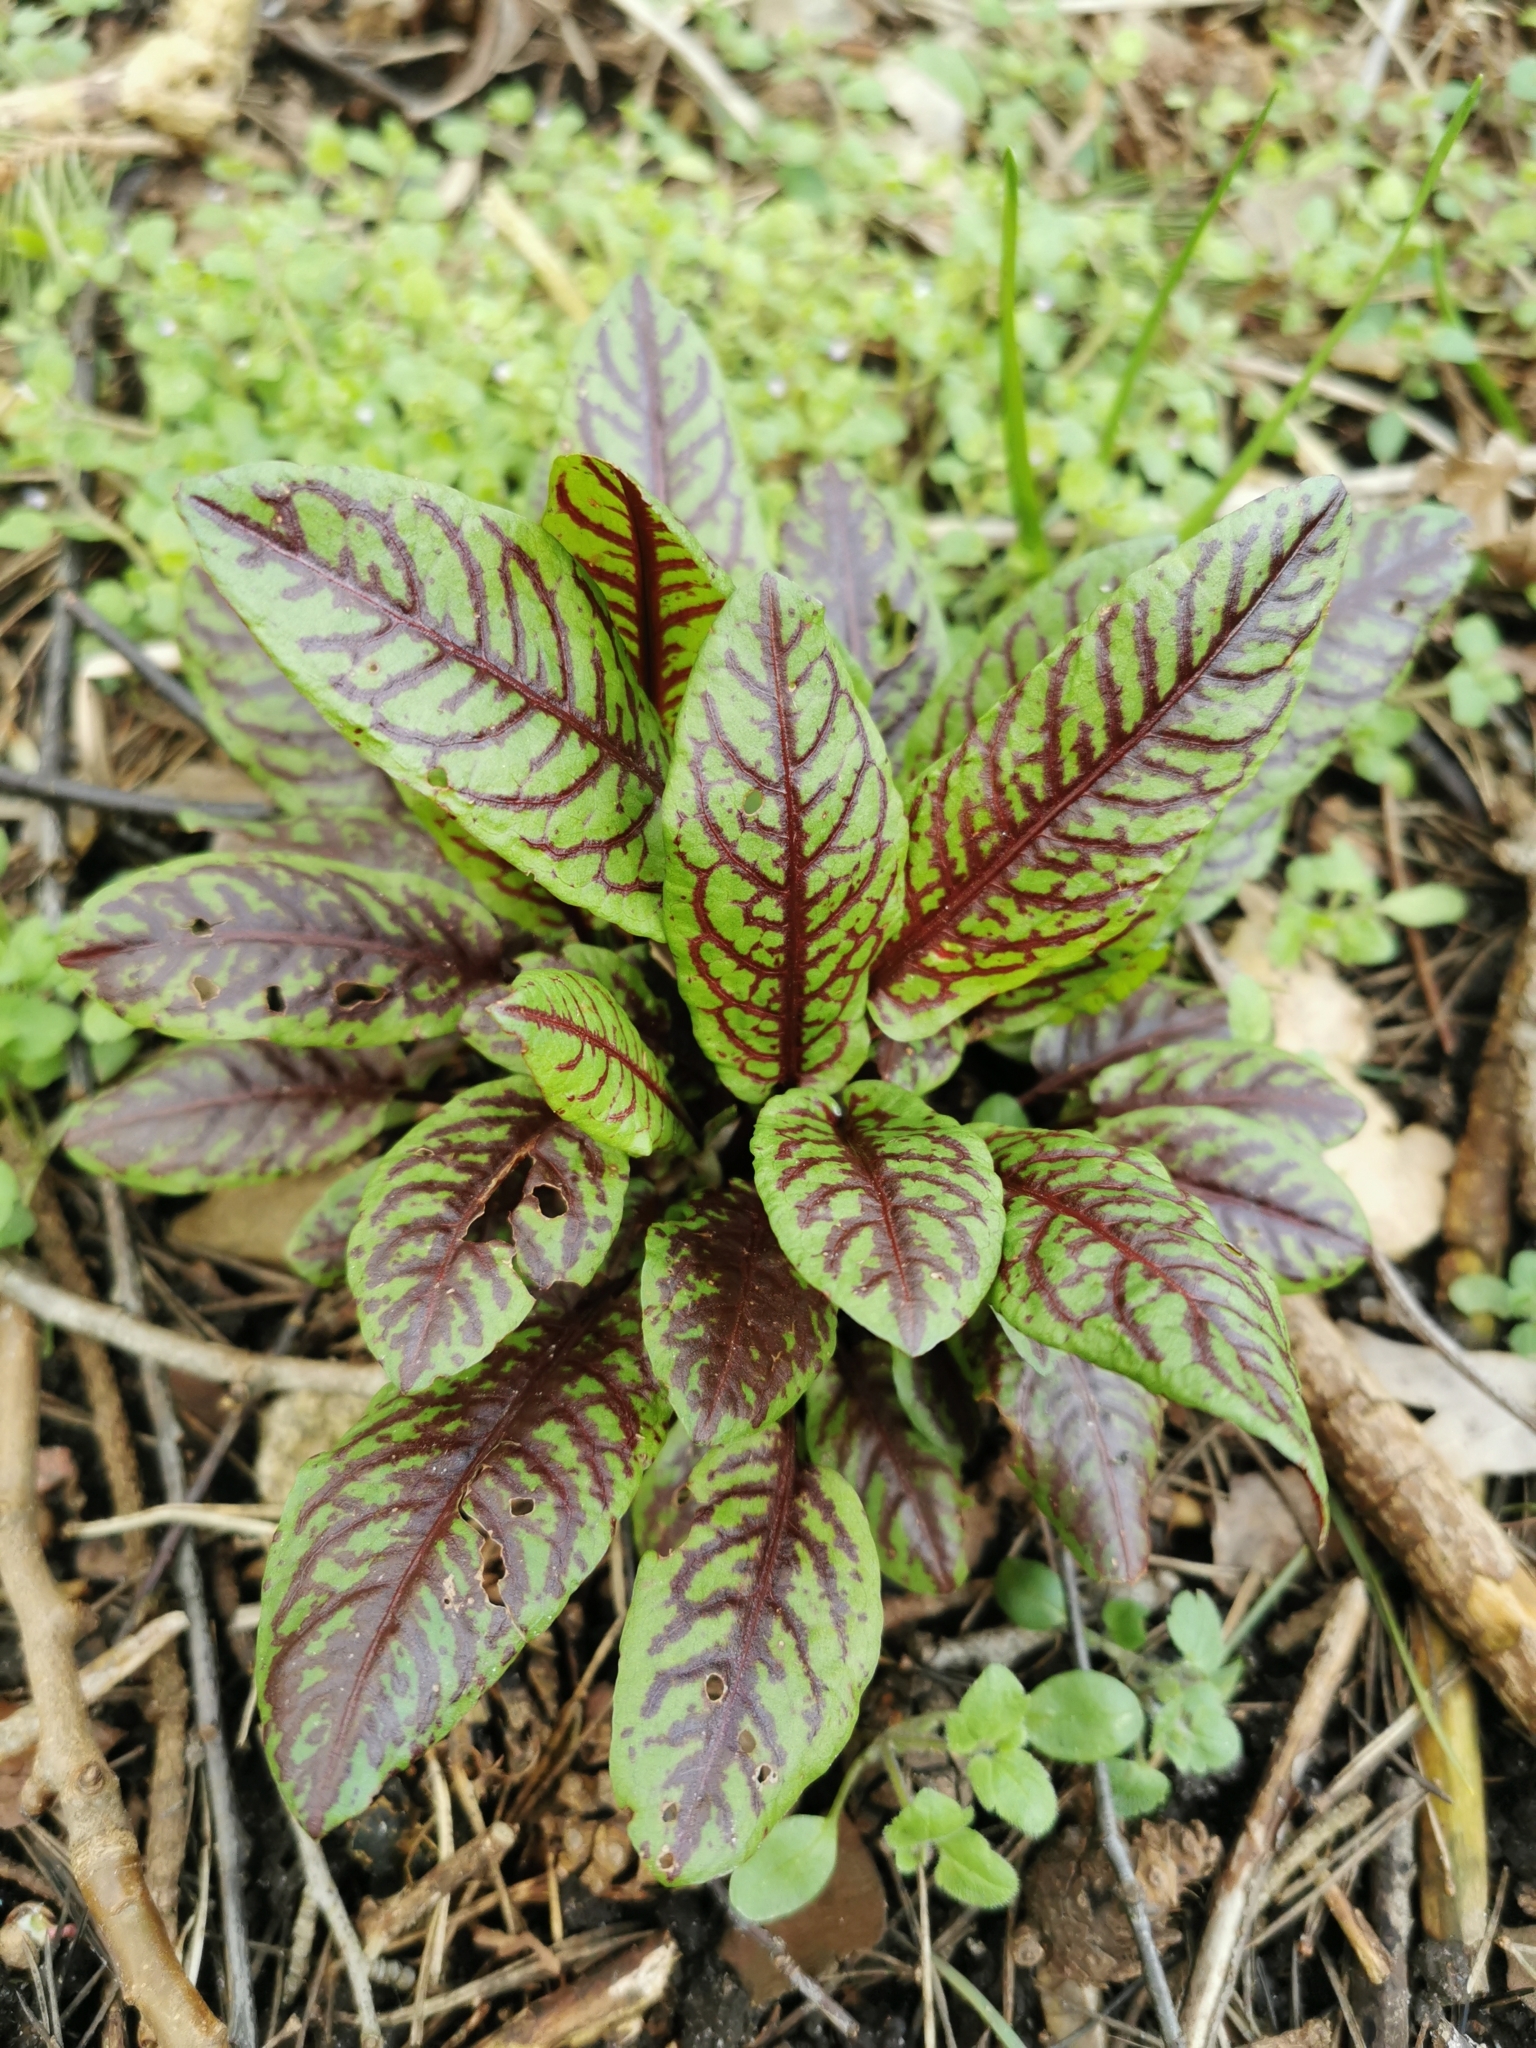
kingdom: Plantae
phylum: Tracheophyta
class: Magnoliopsida
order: Caryophyllales
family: Polygonaceae
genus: Rumex
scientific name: Rumex sanguineus
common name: Wood dock
